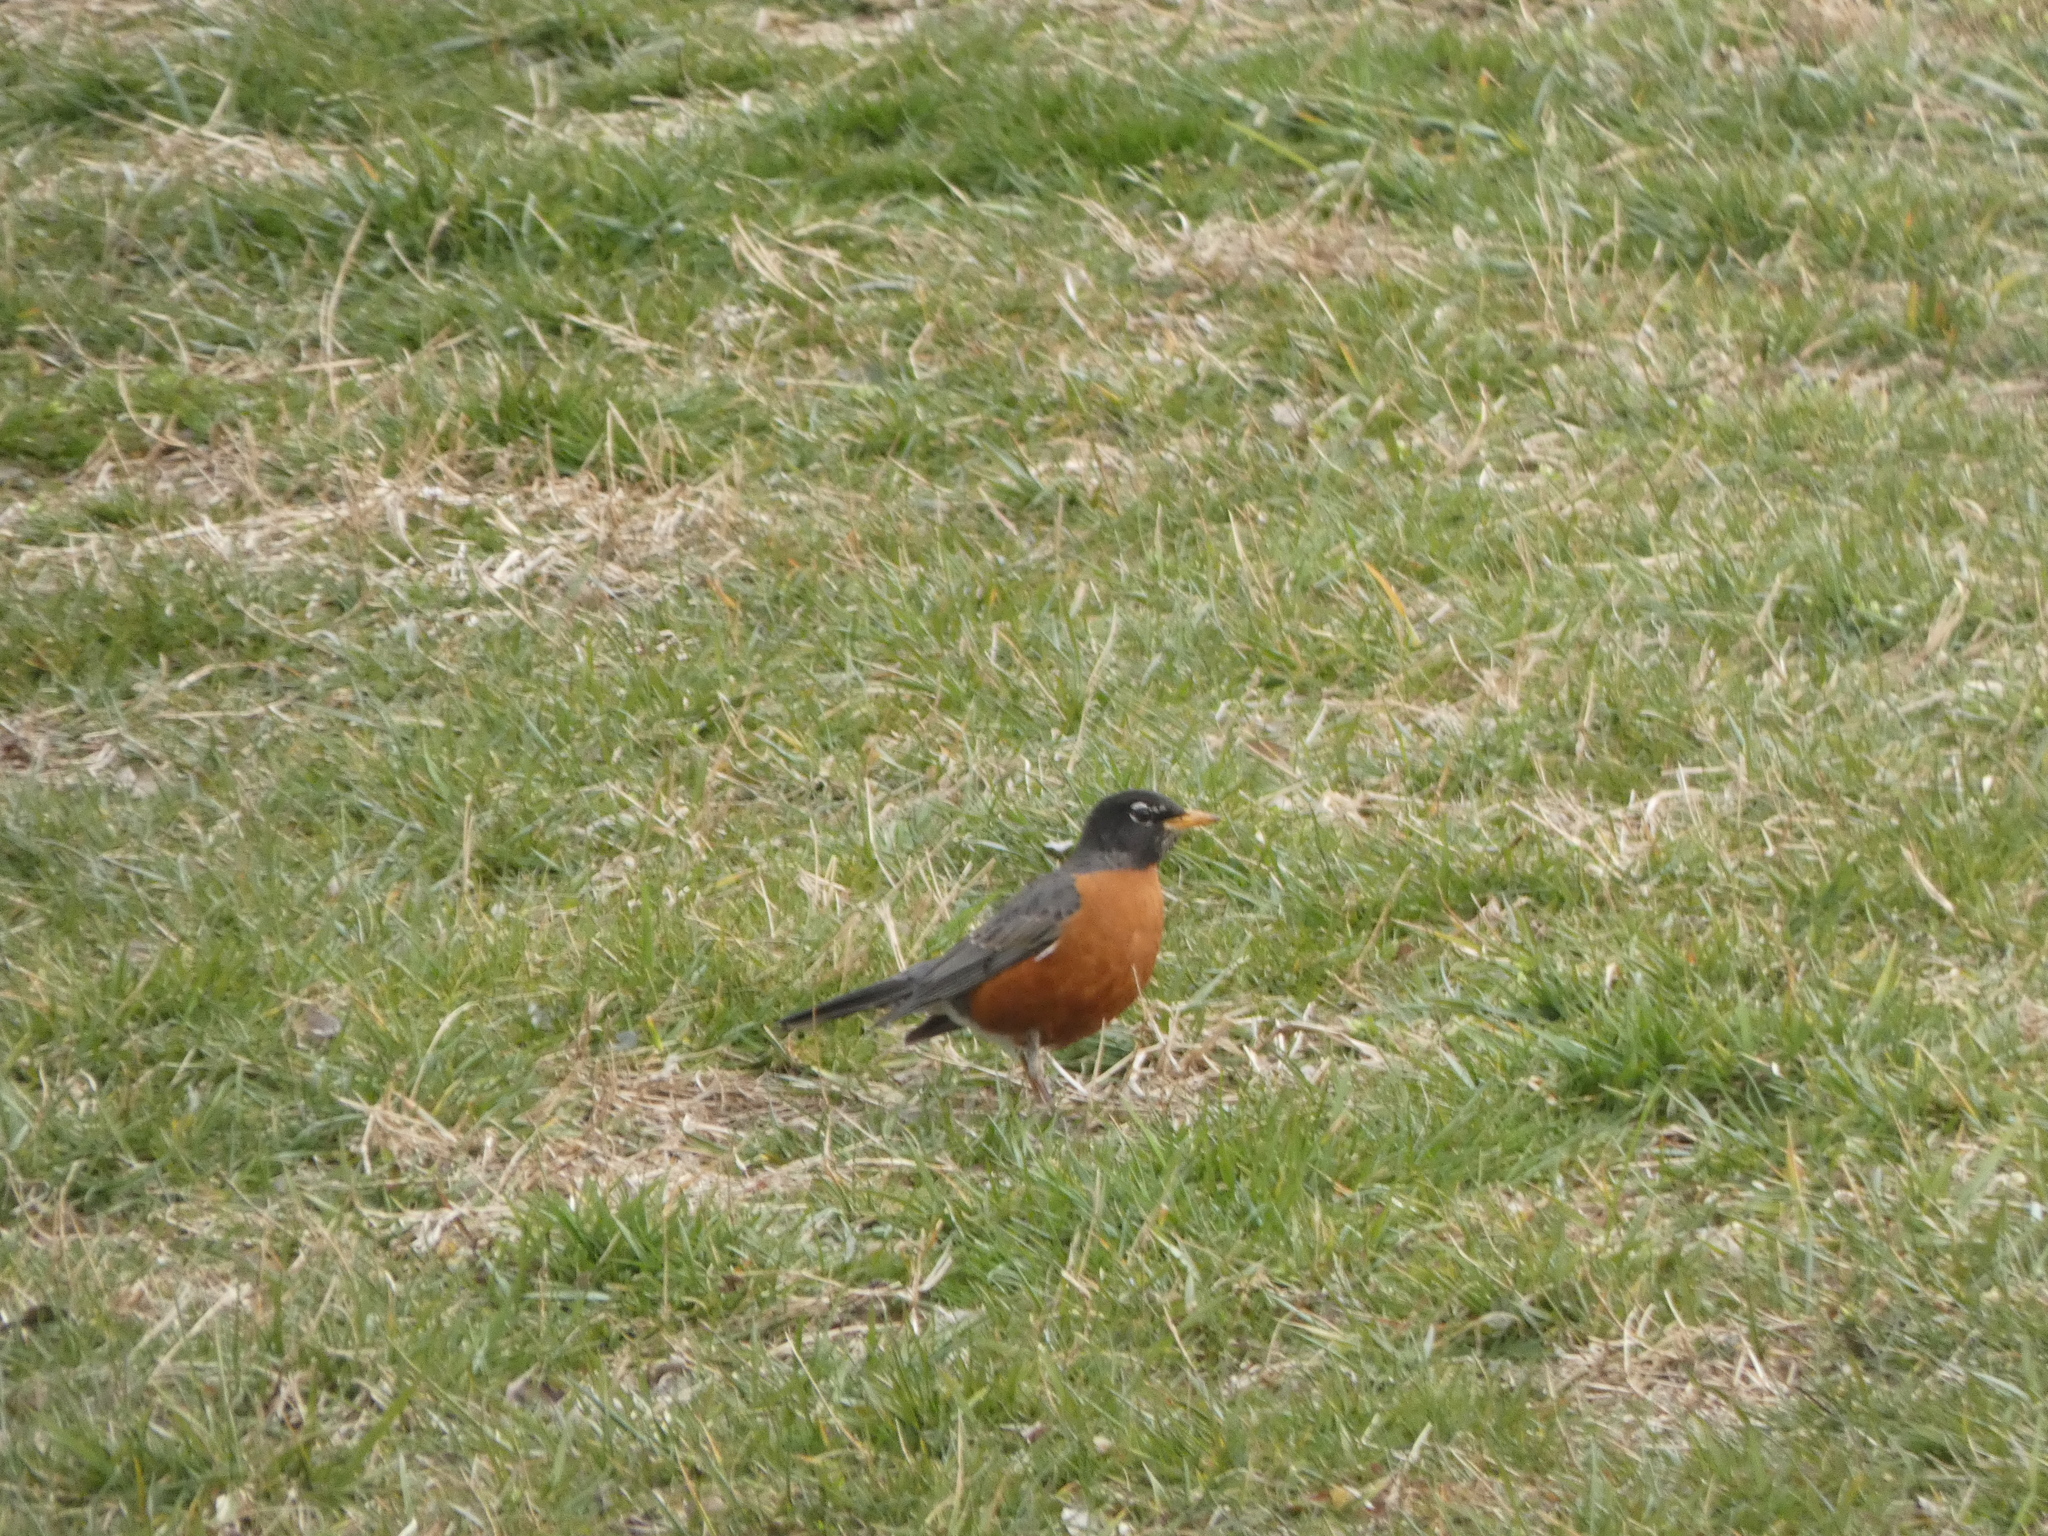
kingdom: Animalia
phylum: Chordata
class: Aves
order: Passeriformes
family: Turdidae
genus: Turdus
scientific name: Turdus migratorius
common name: American robin
